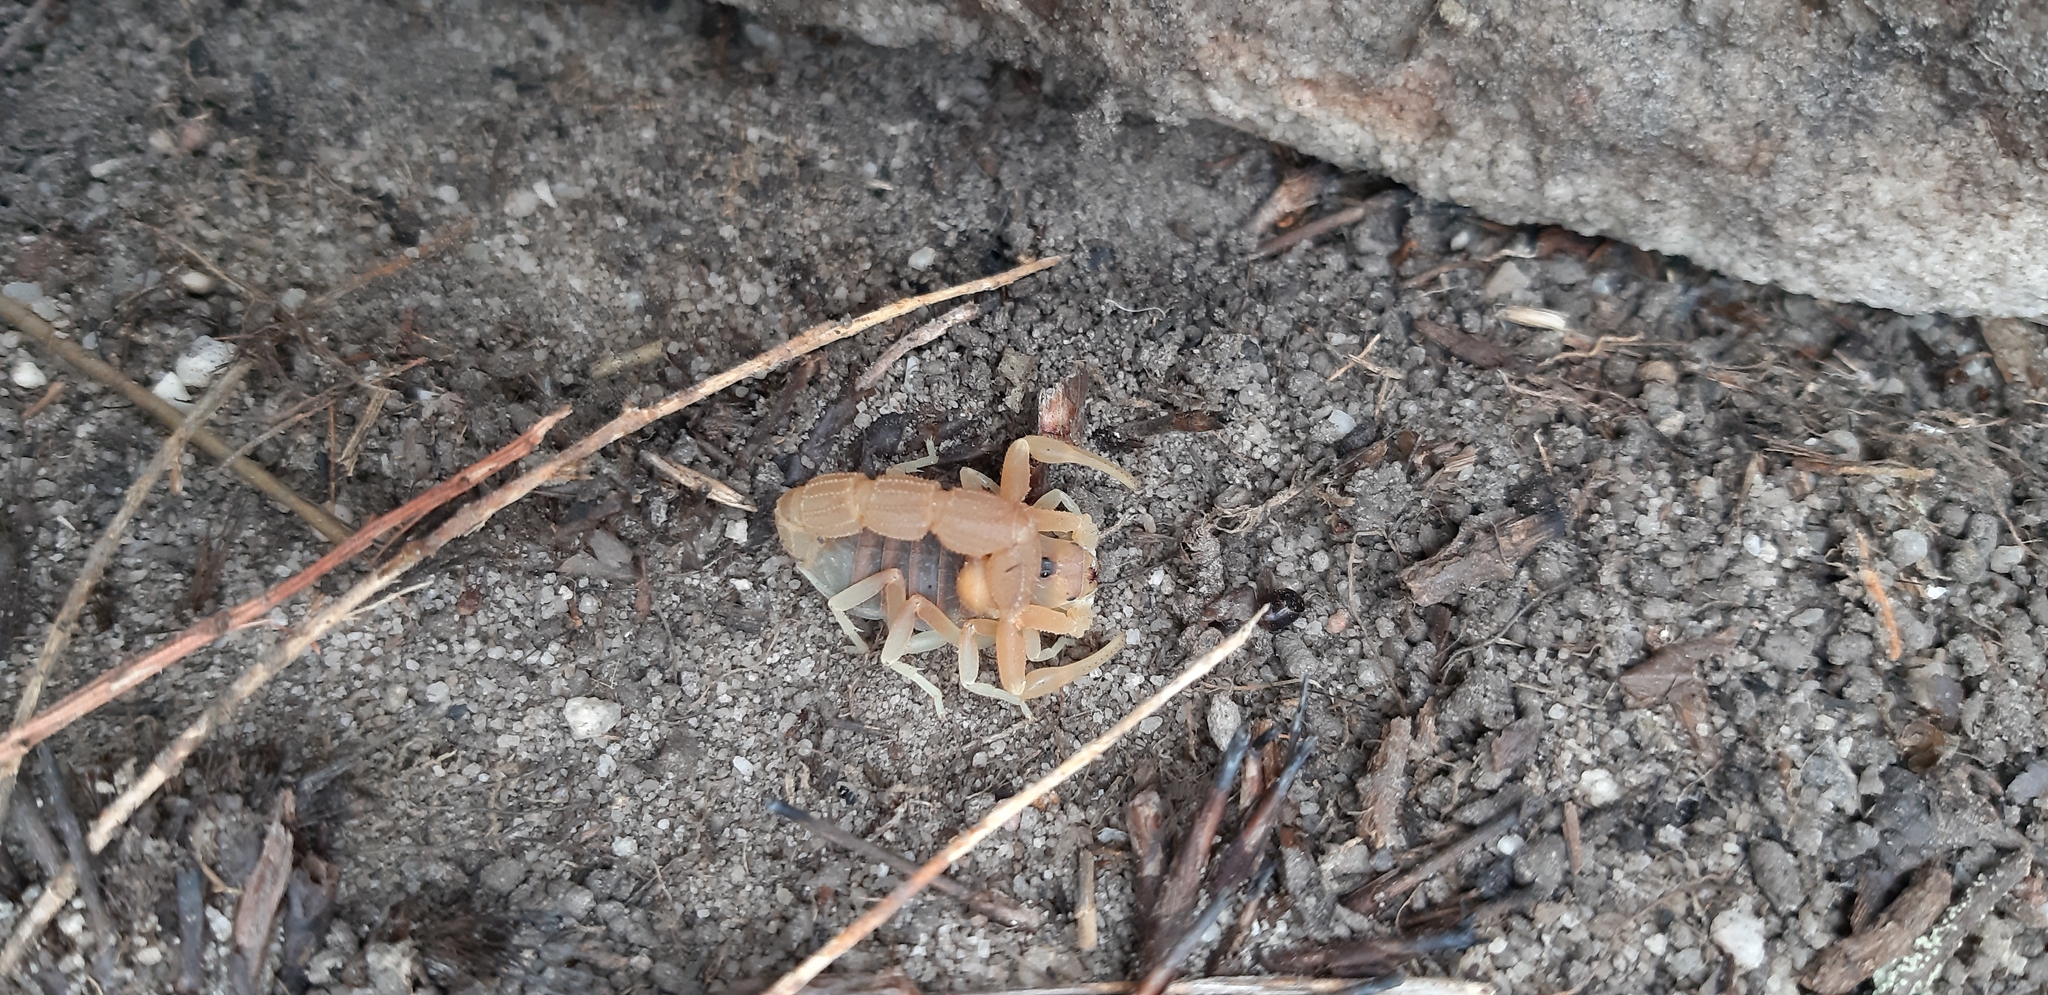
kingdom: Animalia
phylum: Arthropoda
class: Arachnida
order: Scorpiones
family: Buthidae
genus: Parabuthus
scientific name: Parabuthus planicauda
